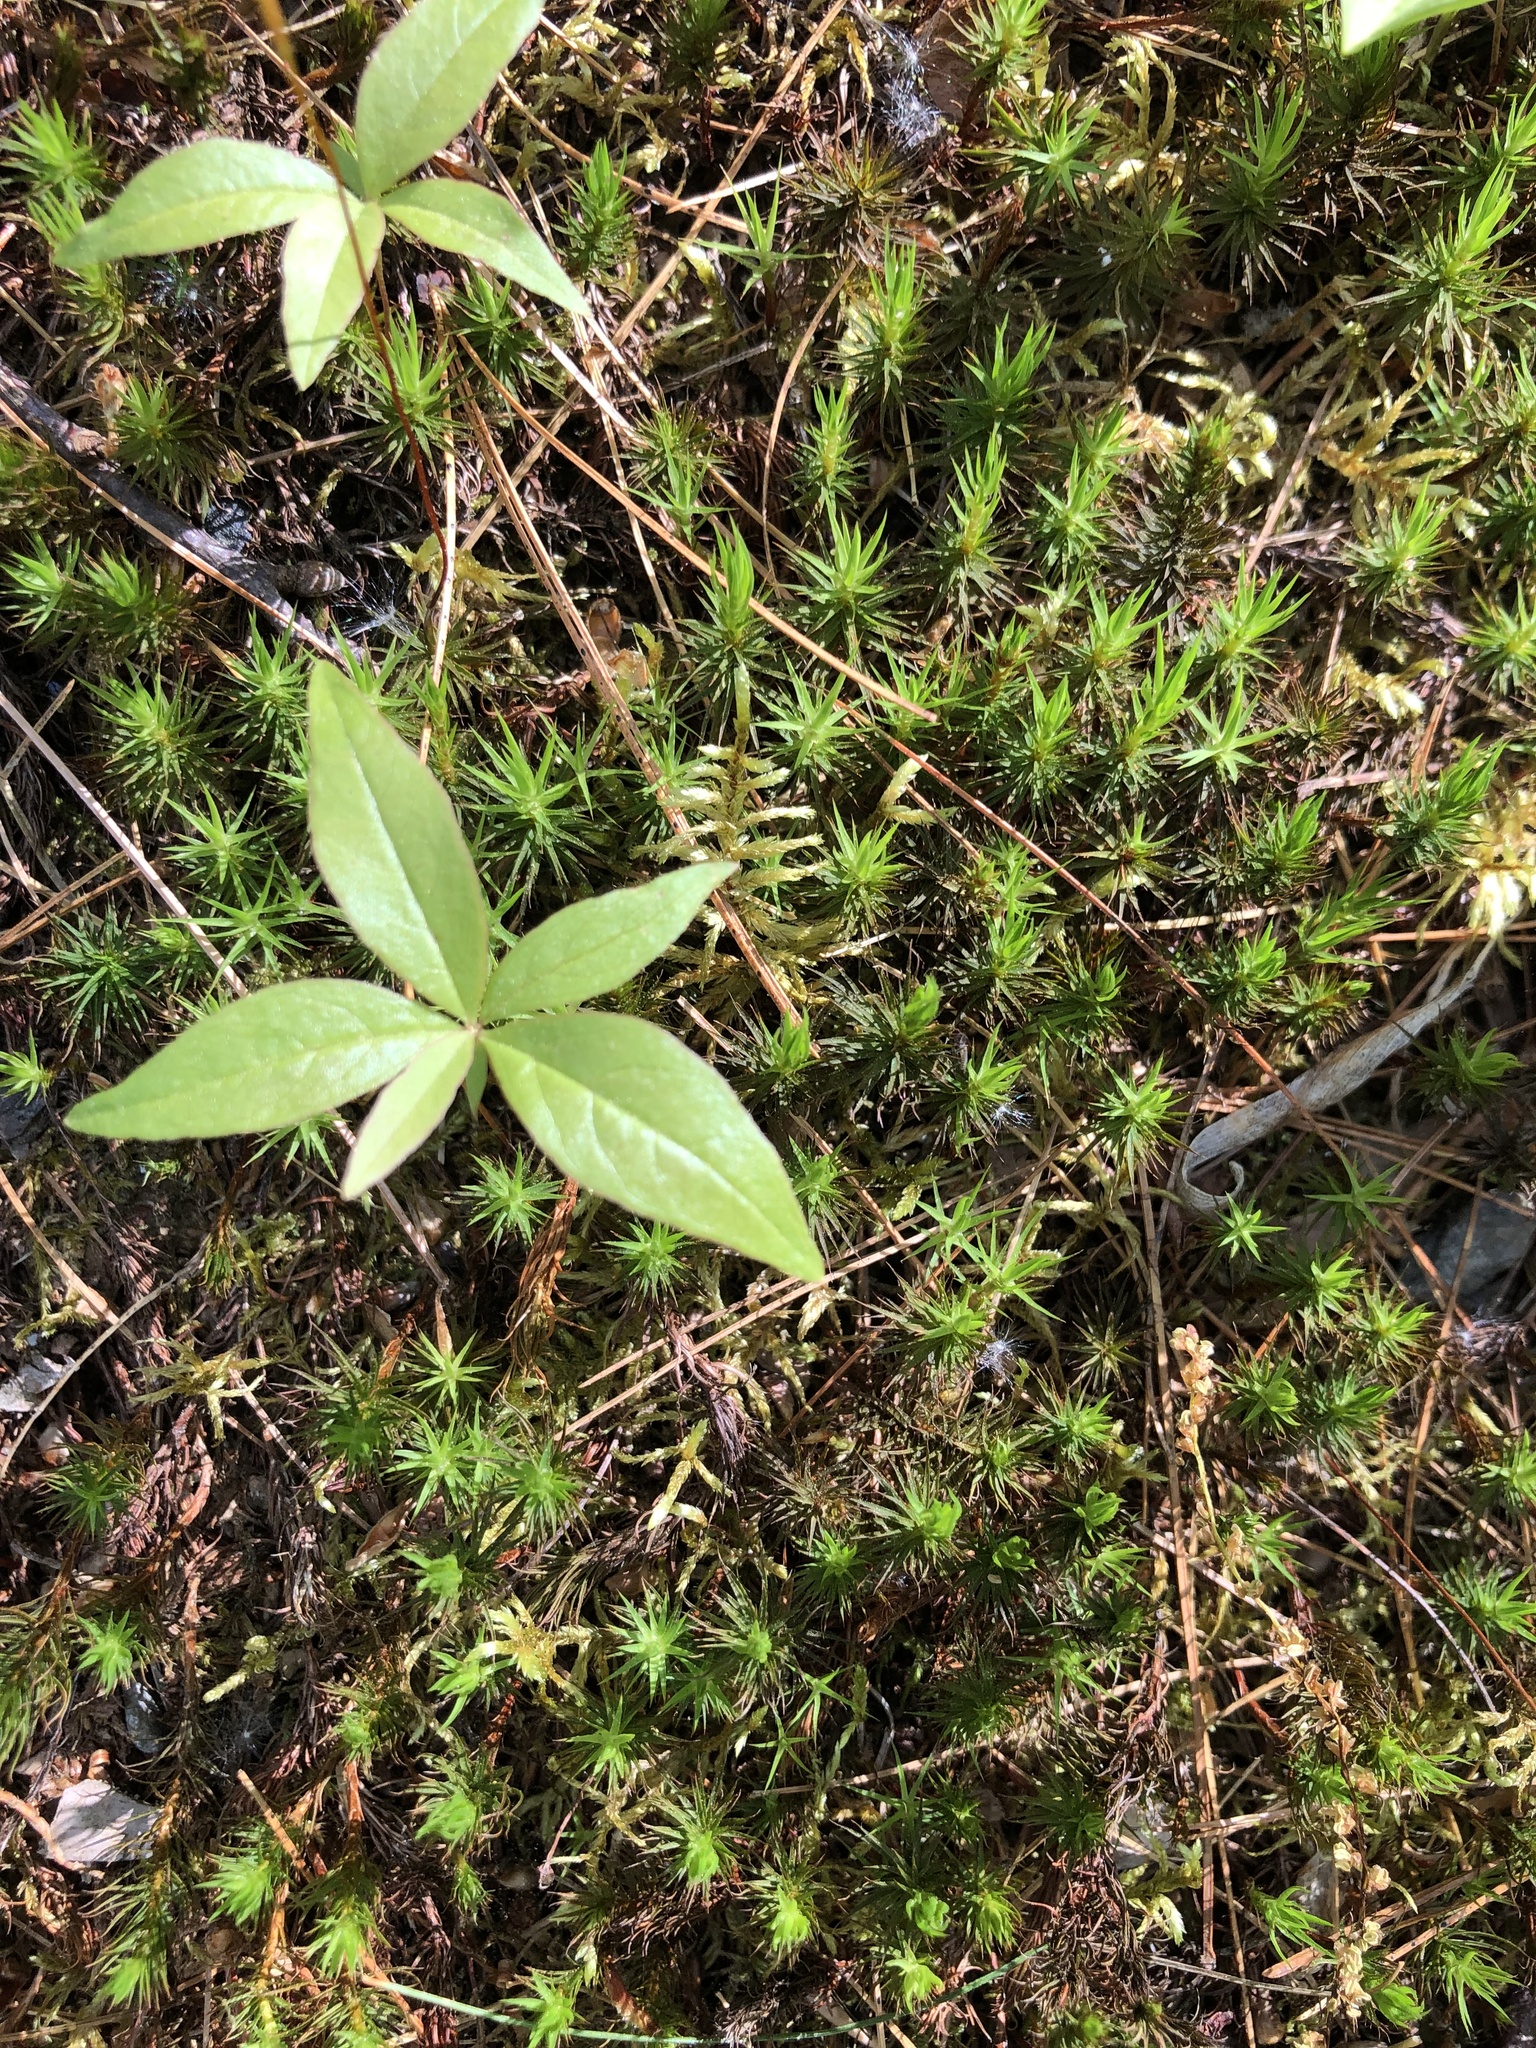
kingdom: Plantae
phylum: Tracheophyta
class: Magnoliopsida
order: Ericales
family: Primulaceae
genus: Lysimachia
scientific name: Lysimachia borealis
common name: American starflower
